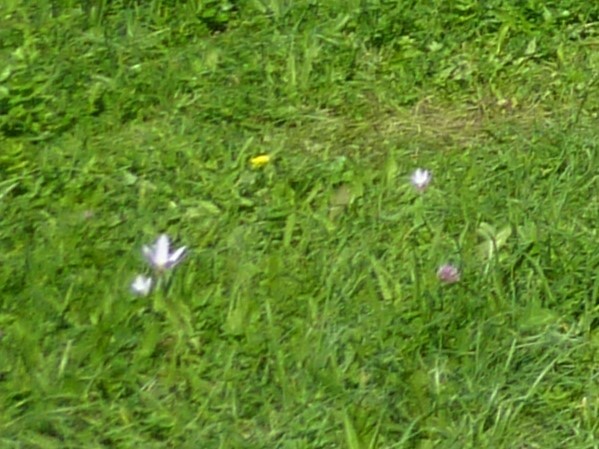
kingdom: Plantae
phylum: Tracheophyta
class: Liliopsida
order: Liliales
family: Colchicaceae
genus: Colchicum
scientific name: Colchicum autumnale
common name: Autumn crocus
